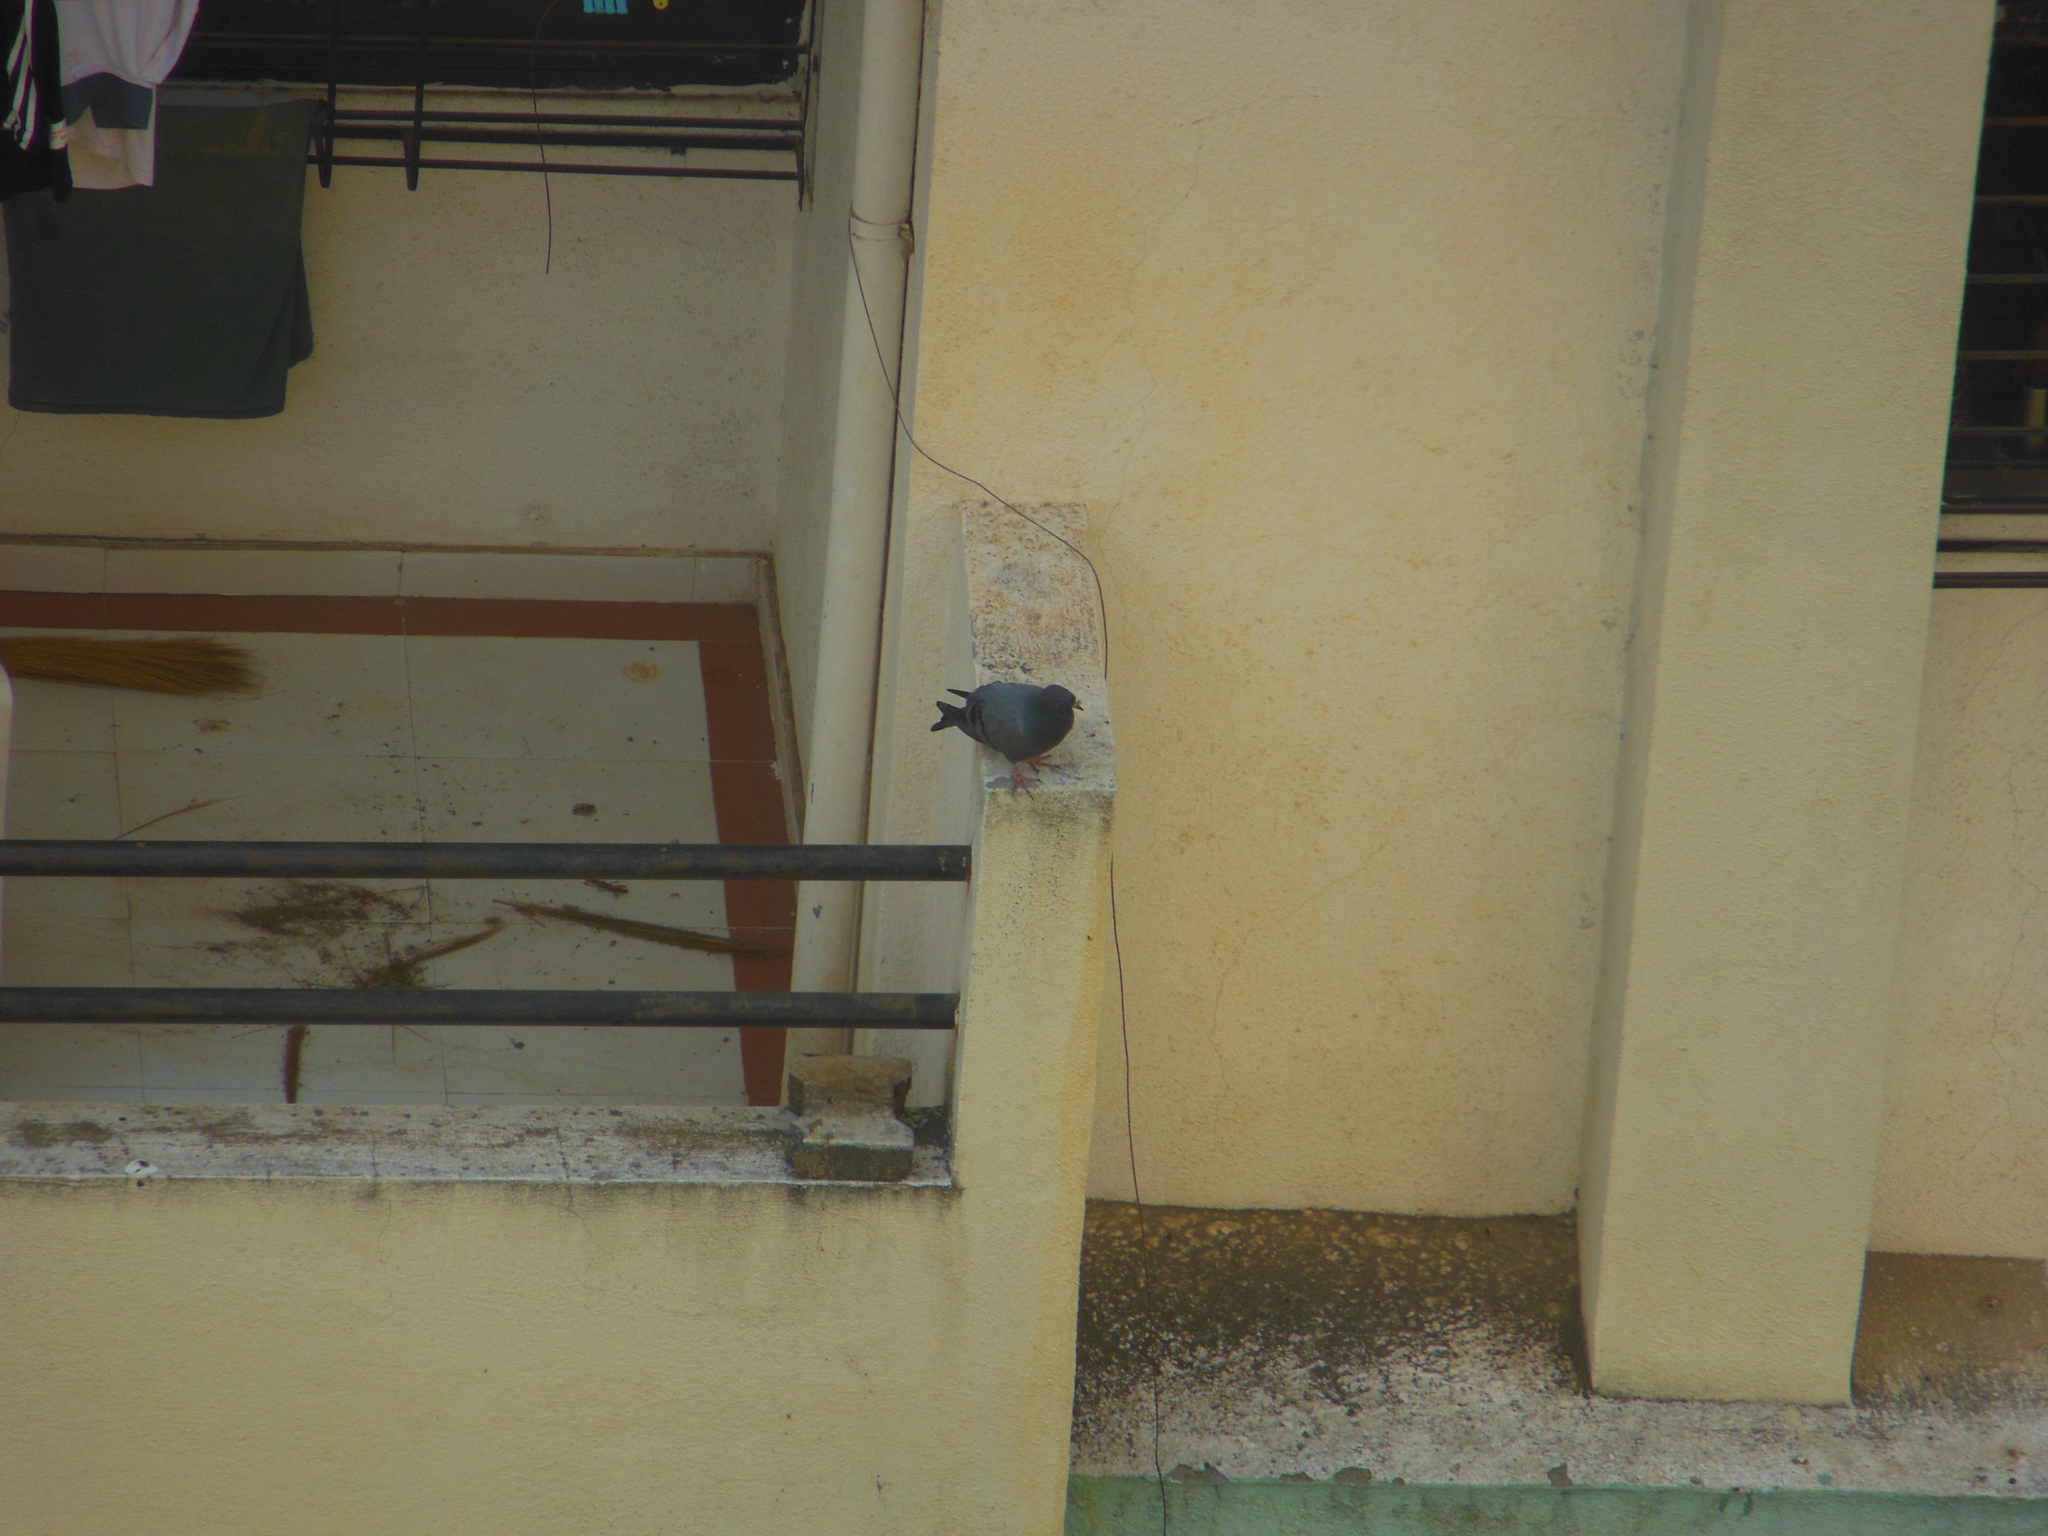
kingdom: Animalia
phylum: Chordata
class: Aves
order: Columbiformes
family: Columbidae
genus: Columba
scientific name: Columba livia
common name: Rock pigeon
